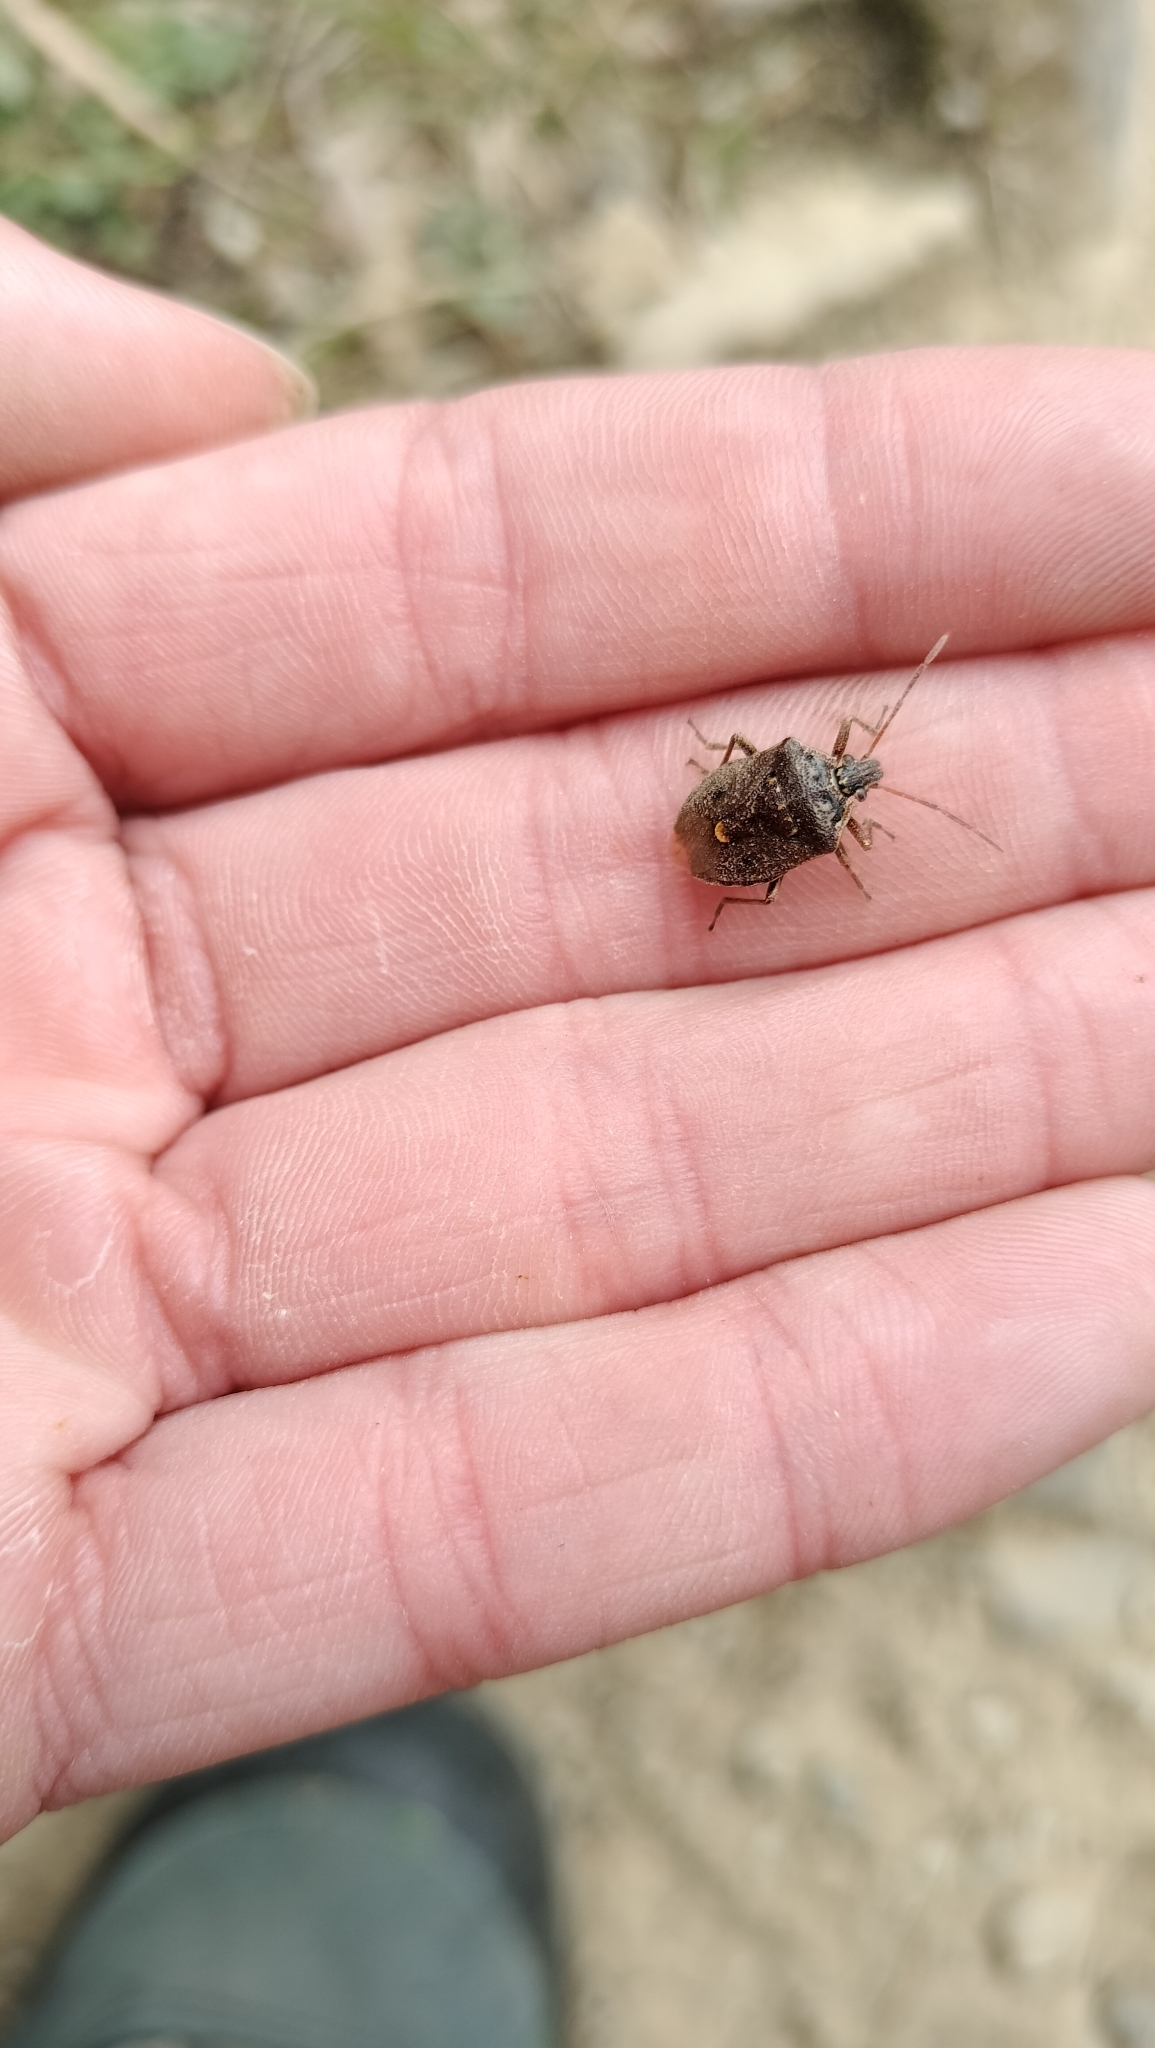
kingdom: Animalia
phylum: Arthropoda
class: Insecta
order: Hemiptera
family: Pentatomidae
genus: Cermatulus
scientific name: Cermatulus nasalis
